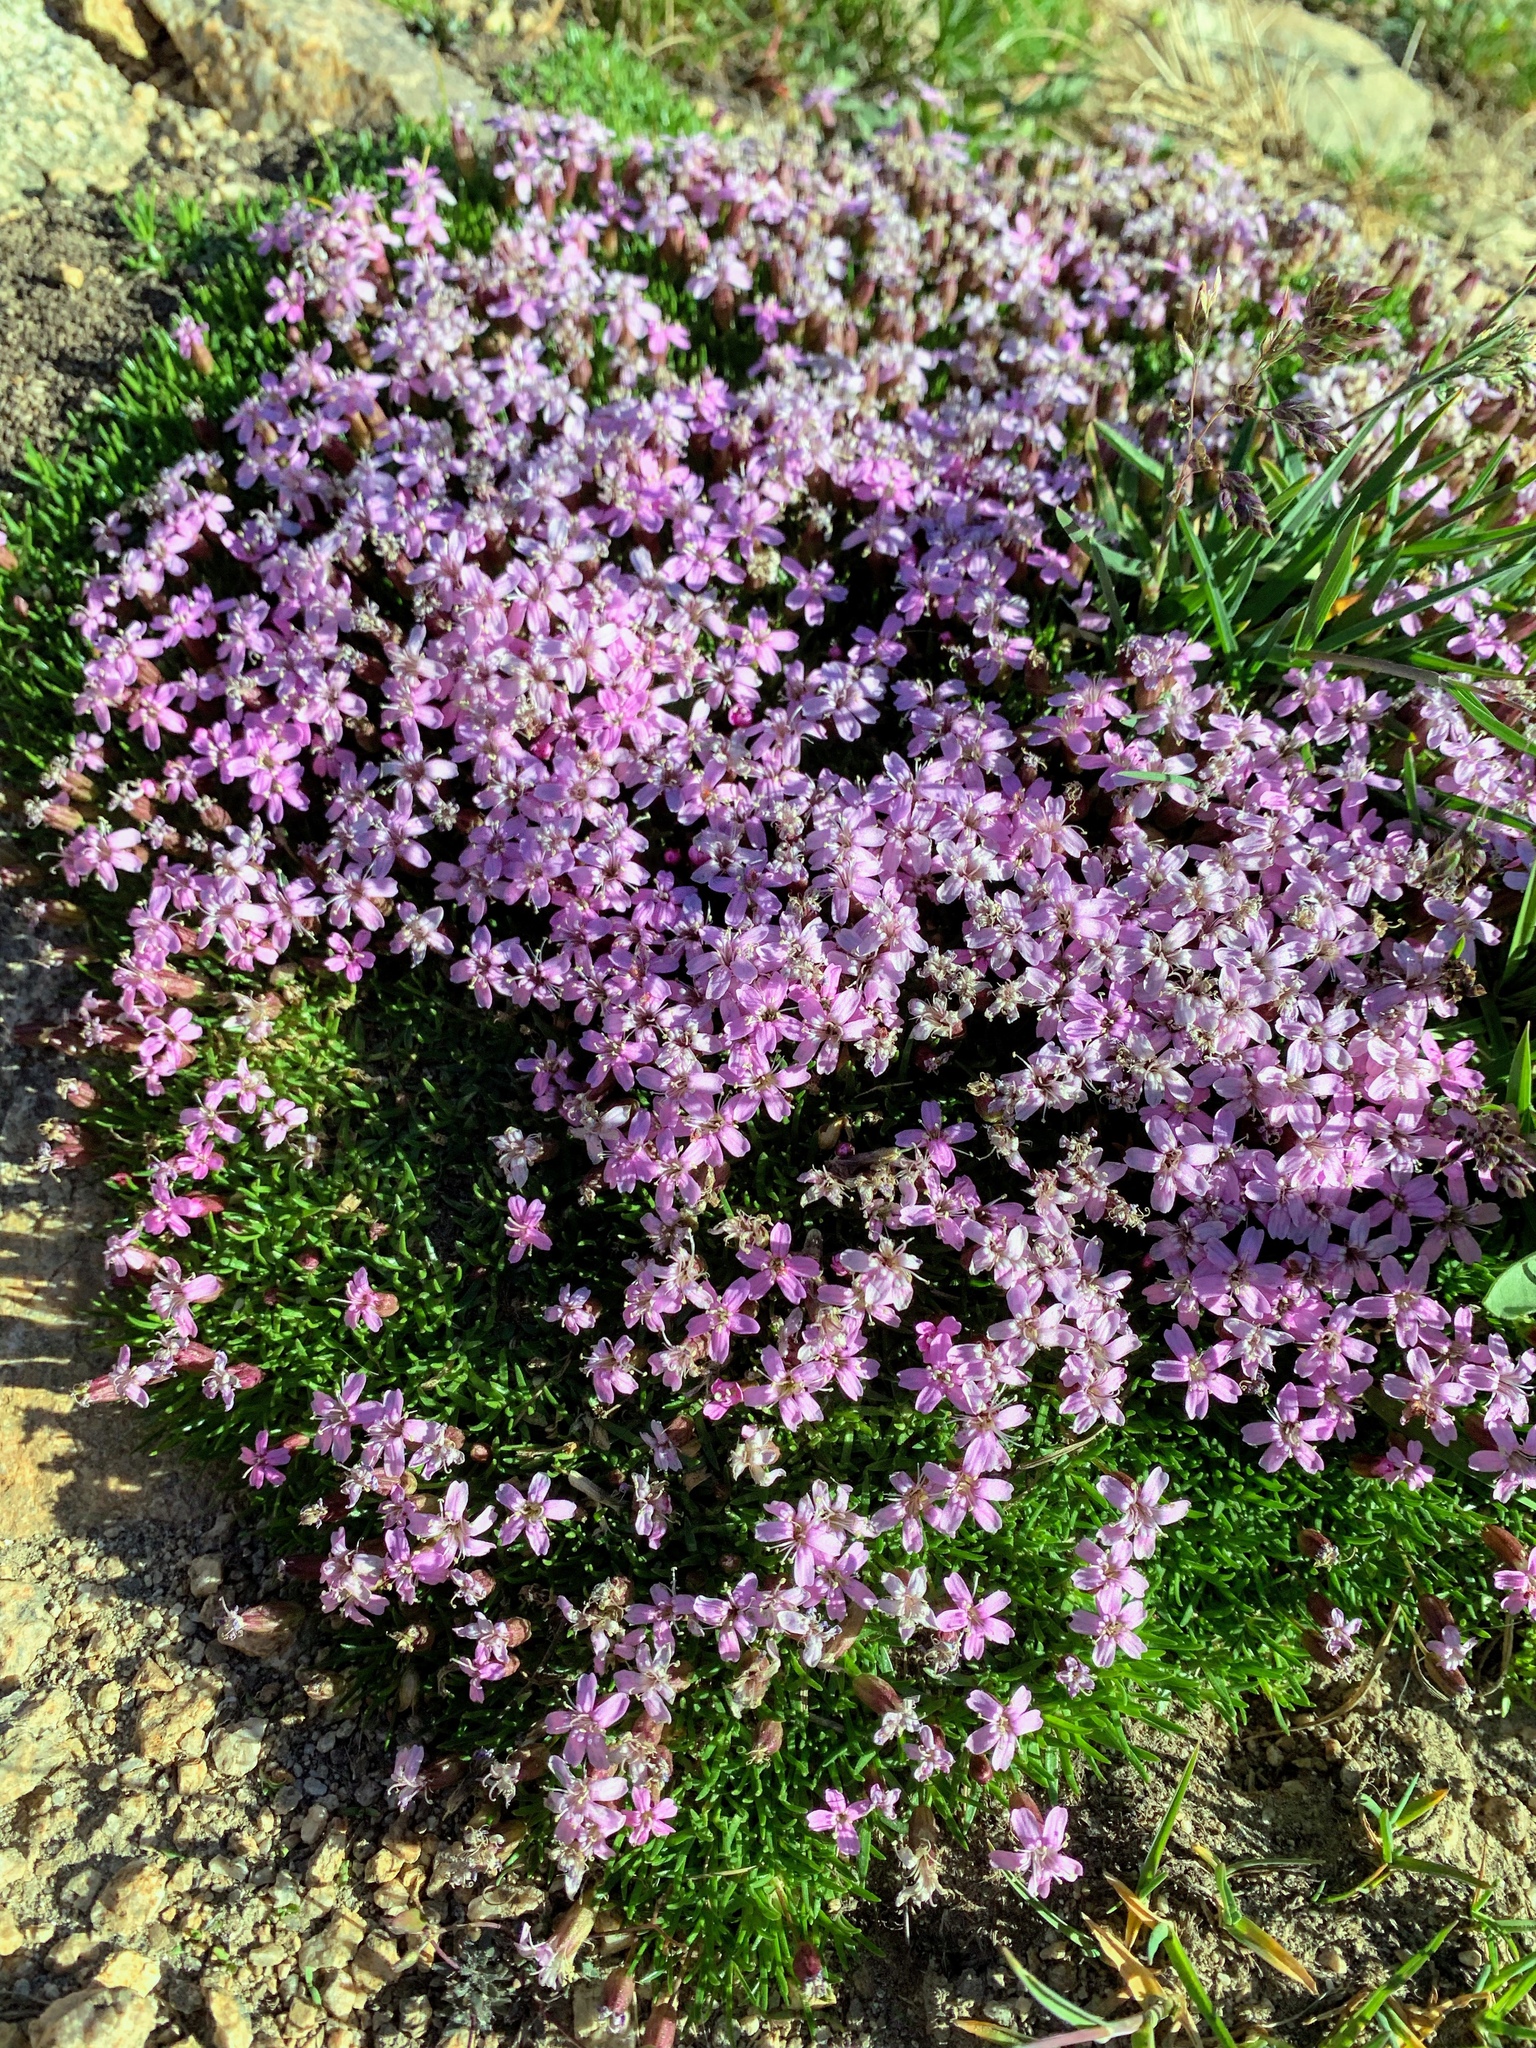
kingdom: Plantae
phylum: Tracheophyta
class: Magnoliopsida
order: Caryophyllales
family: Caryophyllaceae
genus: Silene
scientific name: Silene acaulis
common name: Moss campion
